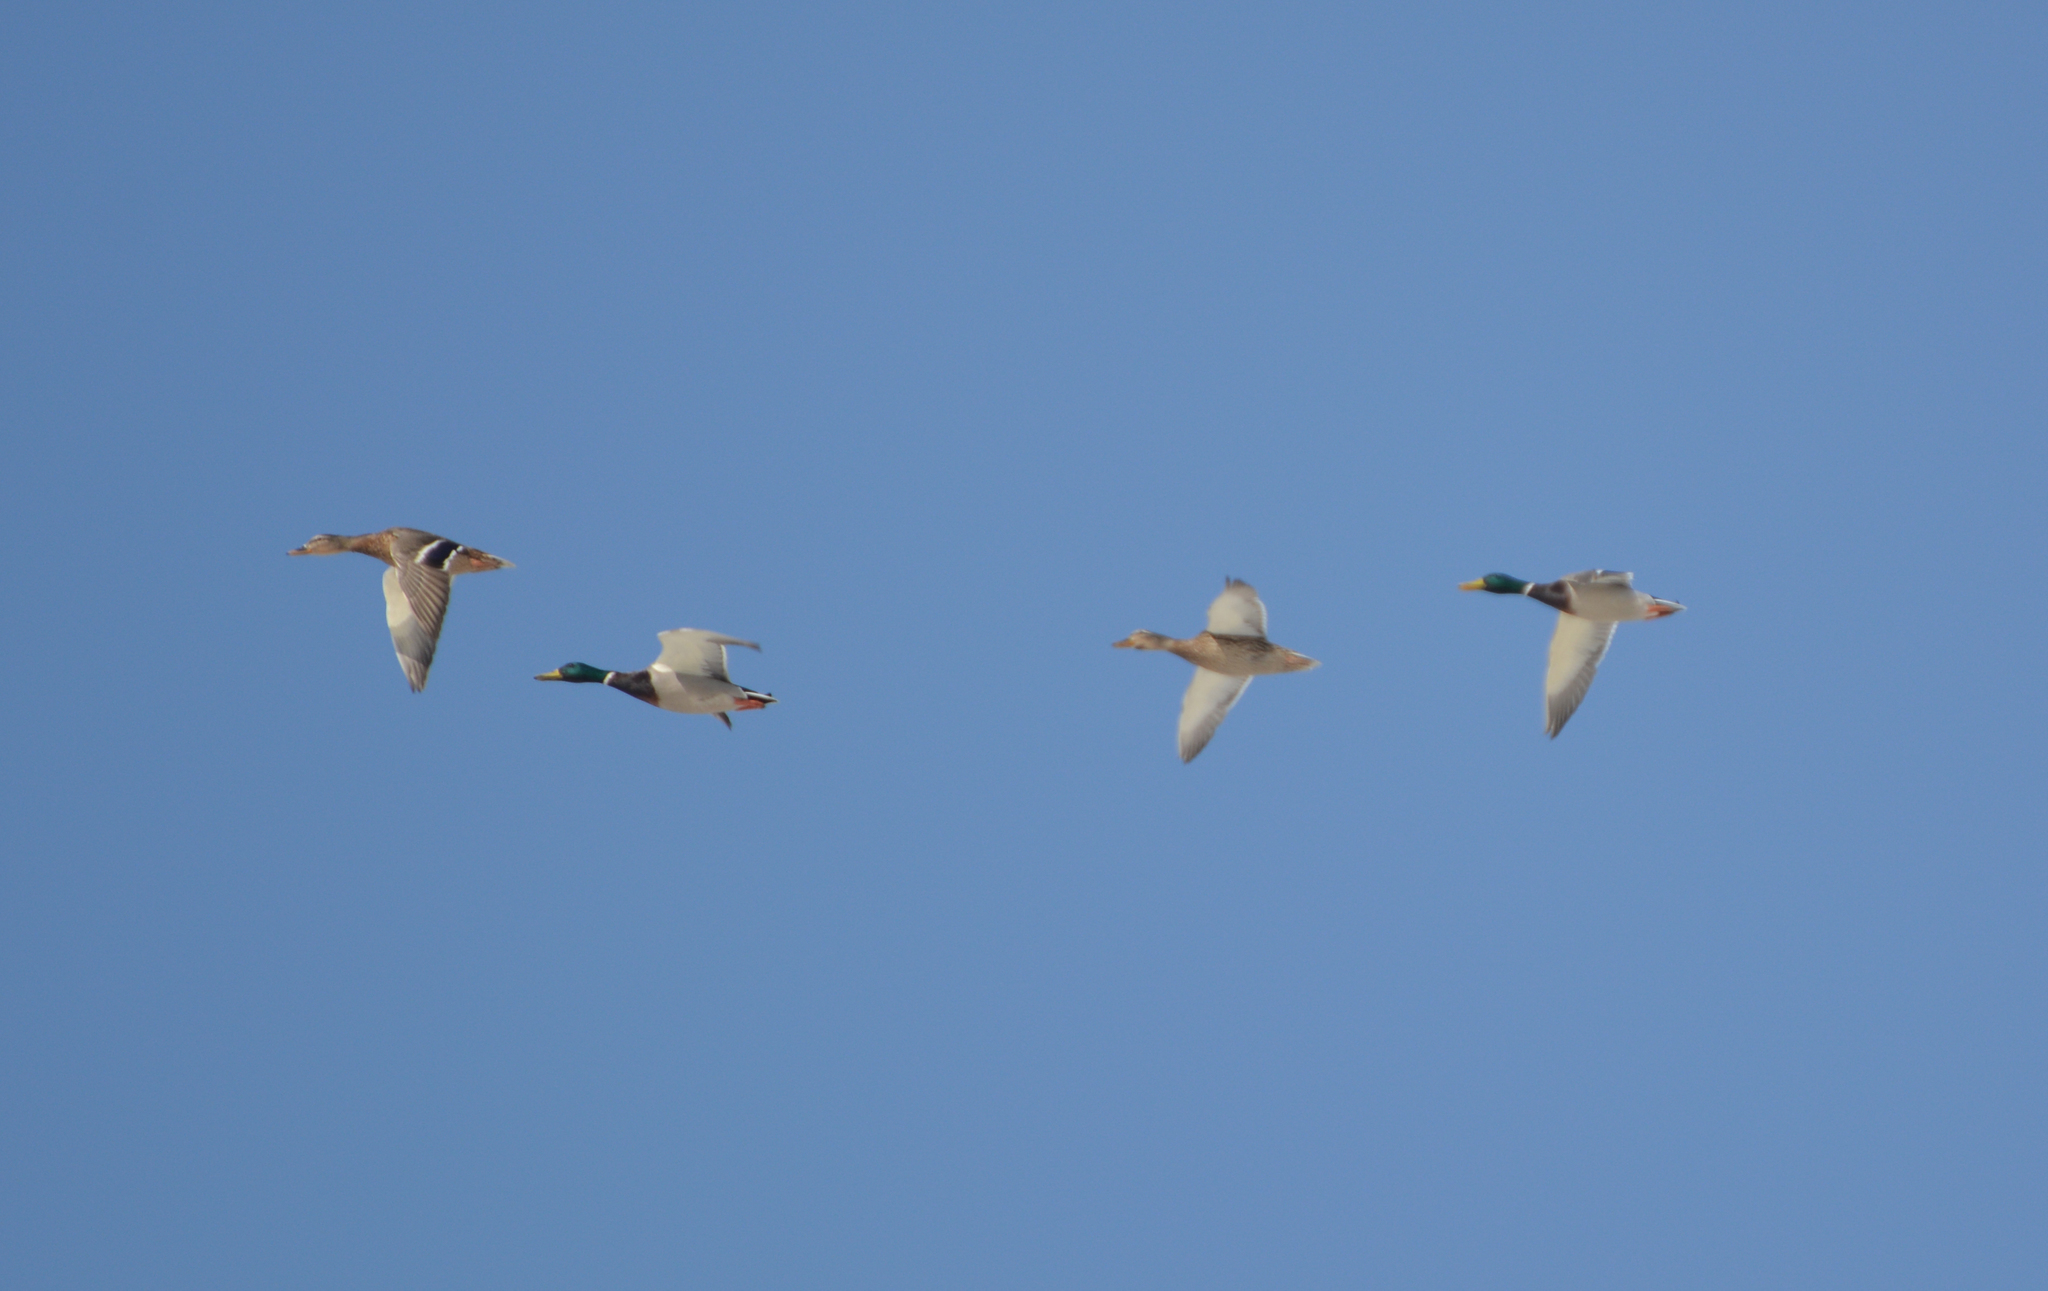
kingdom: Animalia
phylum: Chordata
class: Aves
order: Anseriformes
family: Anatidae
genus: Anas
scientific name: Anas platyrhynchos
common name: Mallard
